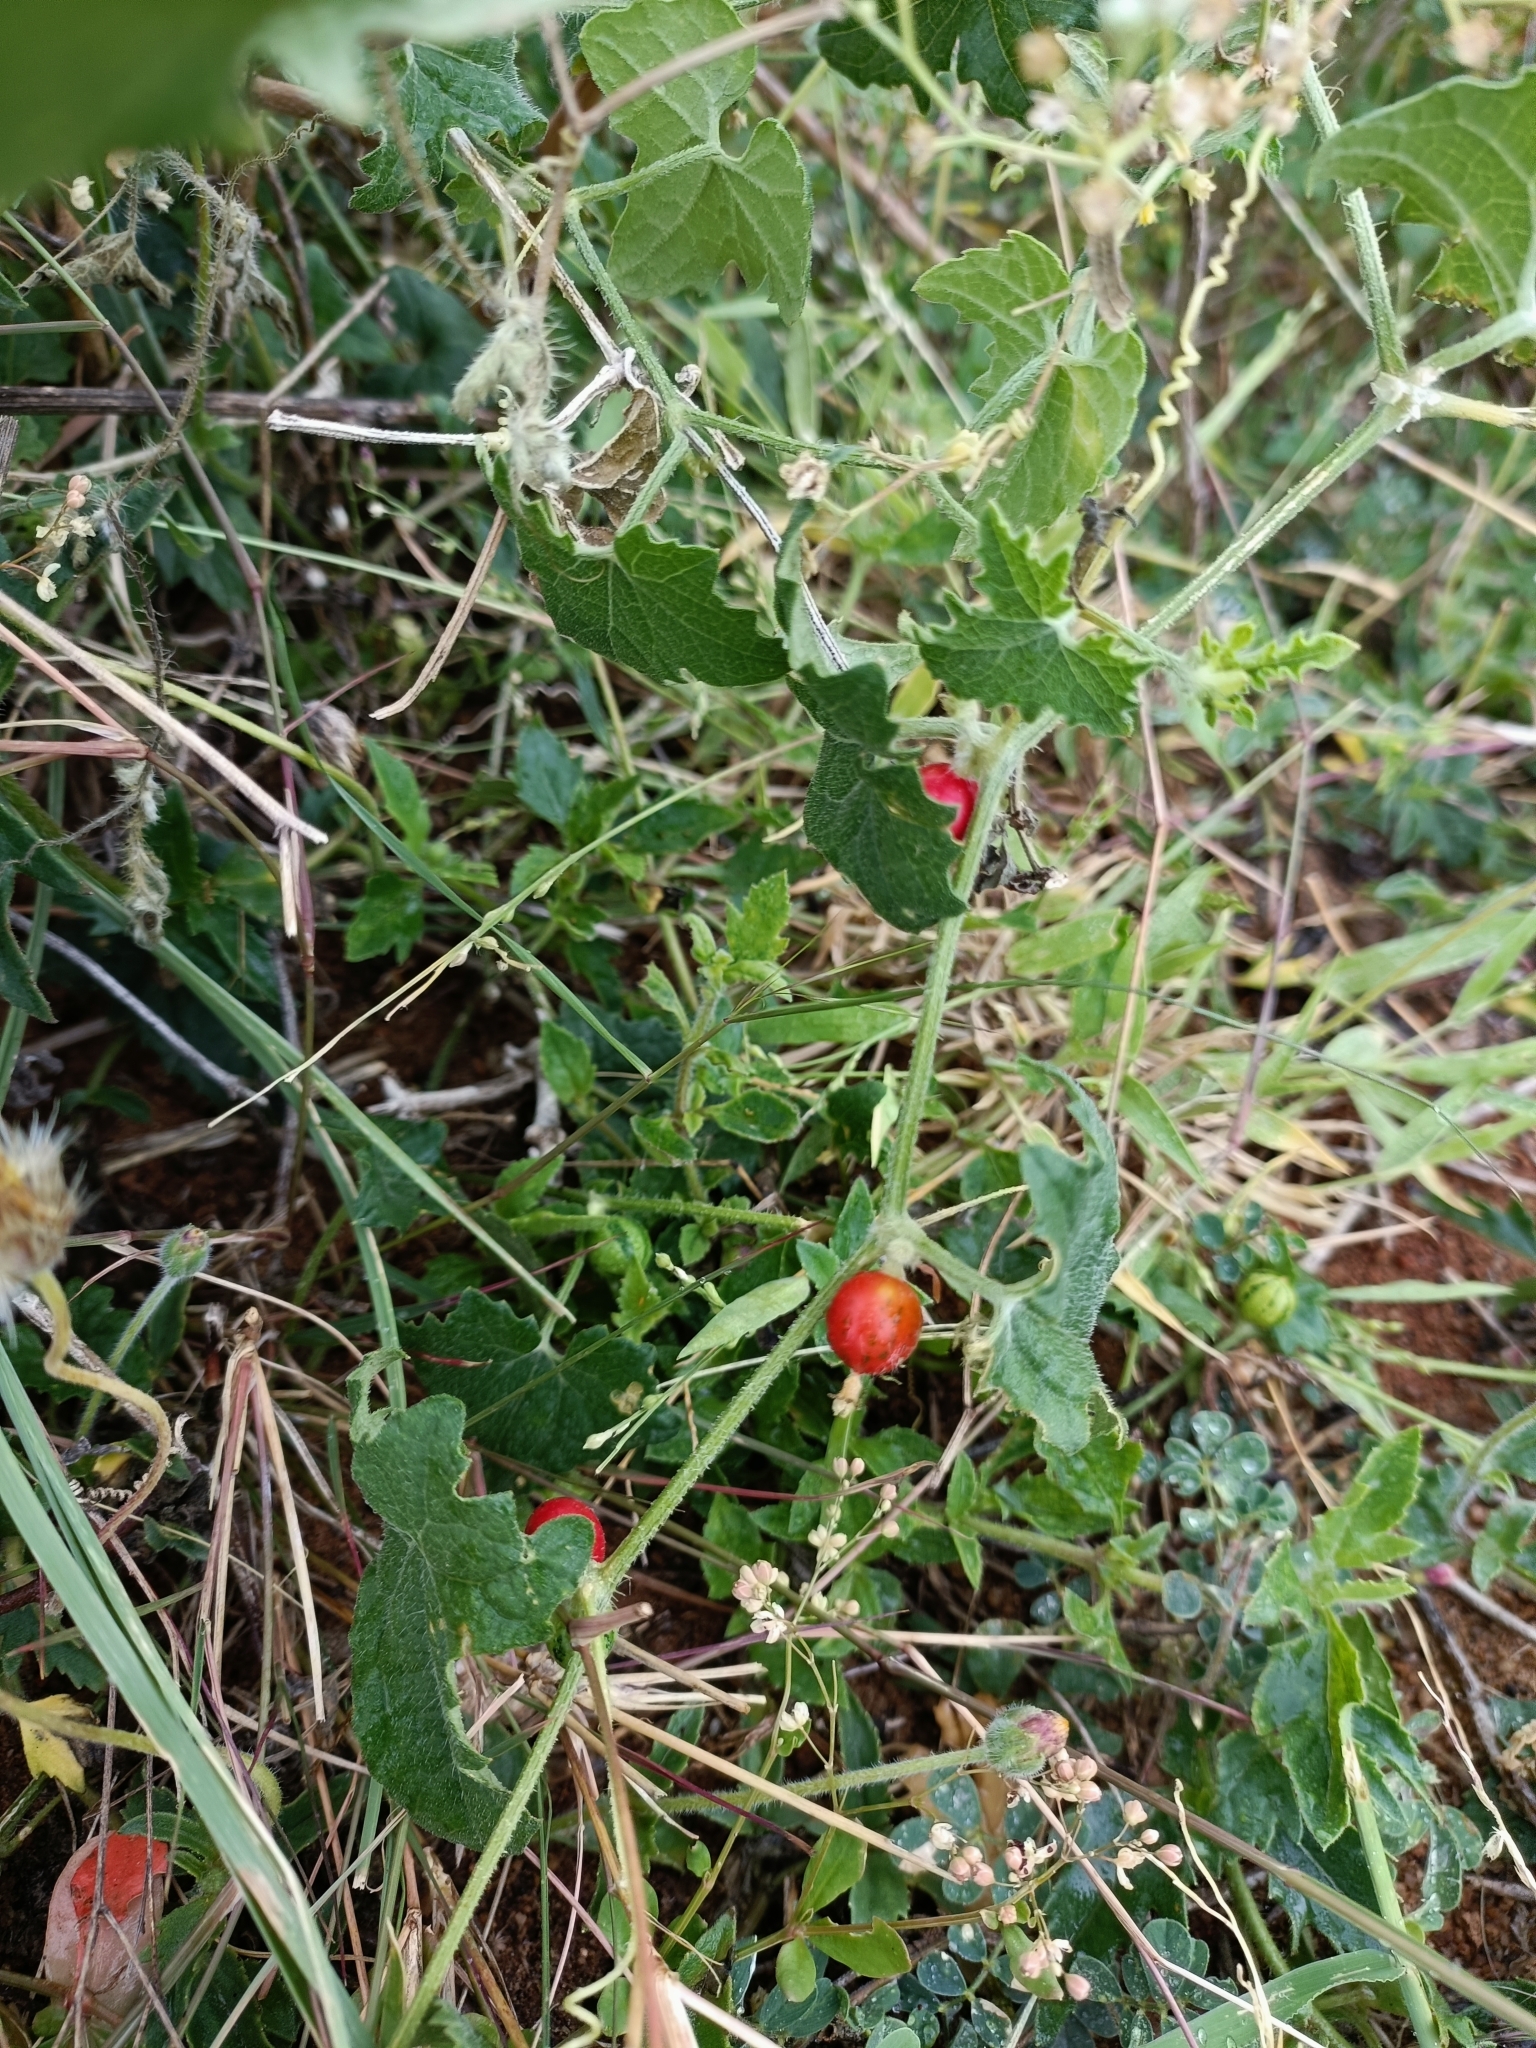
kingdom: Plantae
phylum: Tracheophyta
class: Magnoliopsida
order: Cucurbitales
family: Cucurbitaceae
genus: Cucumis
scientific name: Cucumis maderaspatanus
